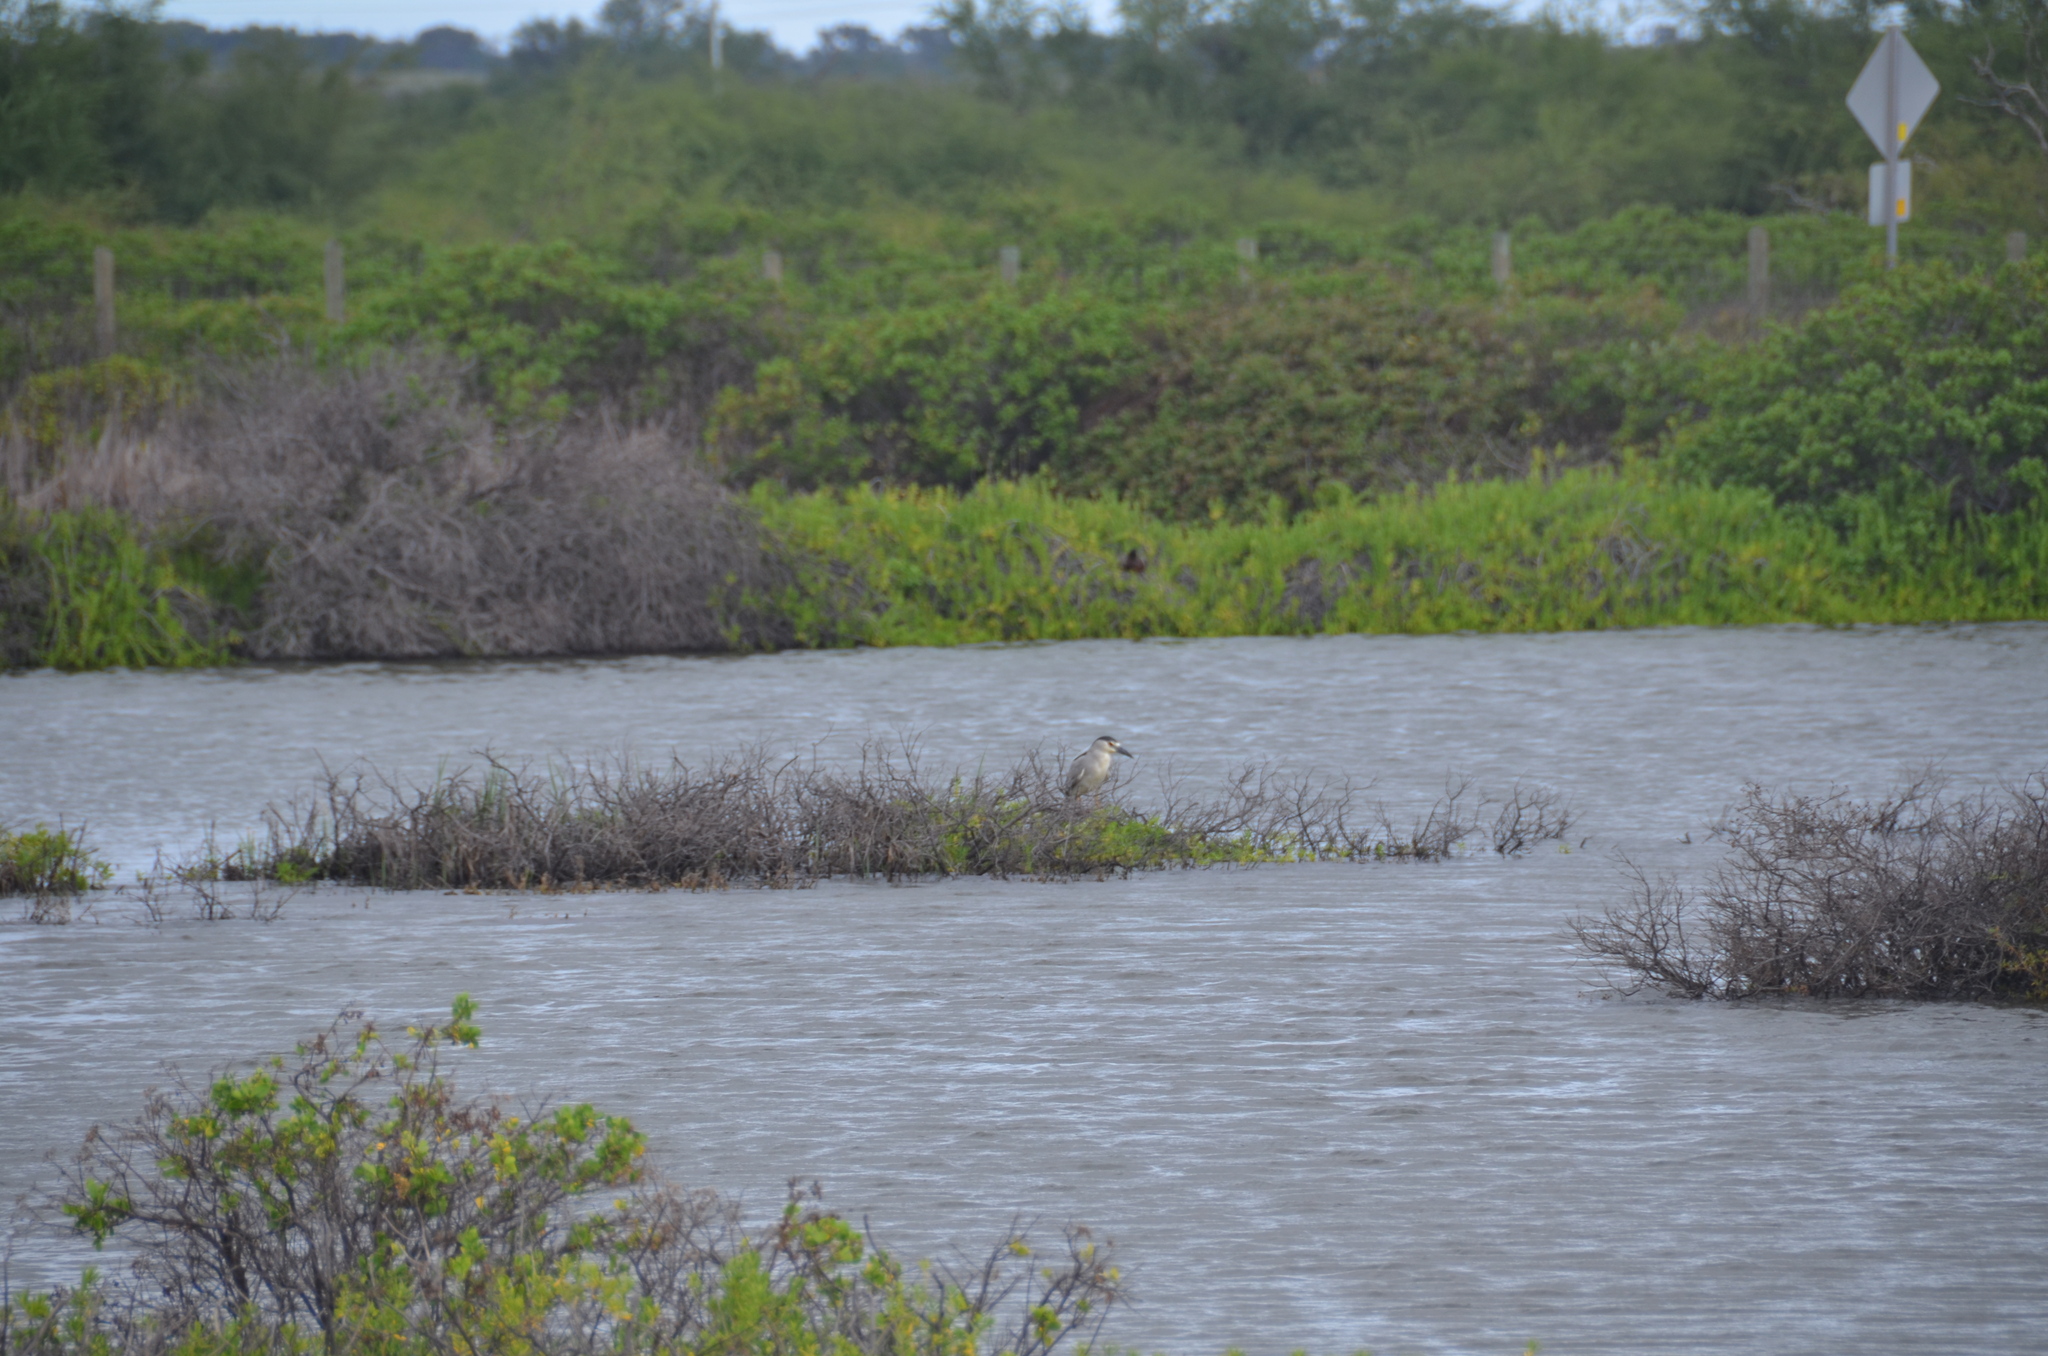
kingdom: Animalia
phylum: Chordata
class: Aves
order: Pelecaniformes
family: Ardeidae
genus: Nycticorax
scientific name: Nycticorax nycticorax
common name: Black-crowned night heron
